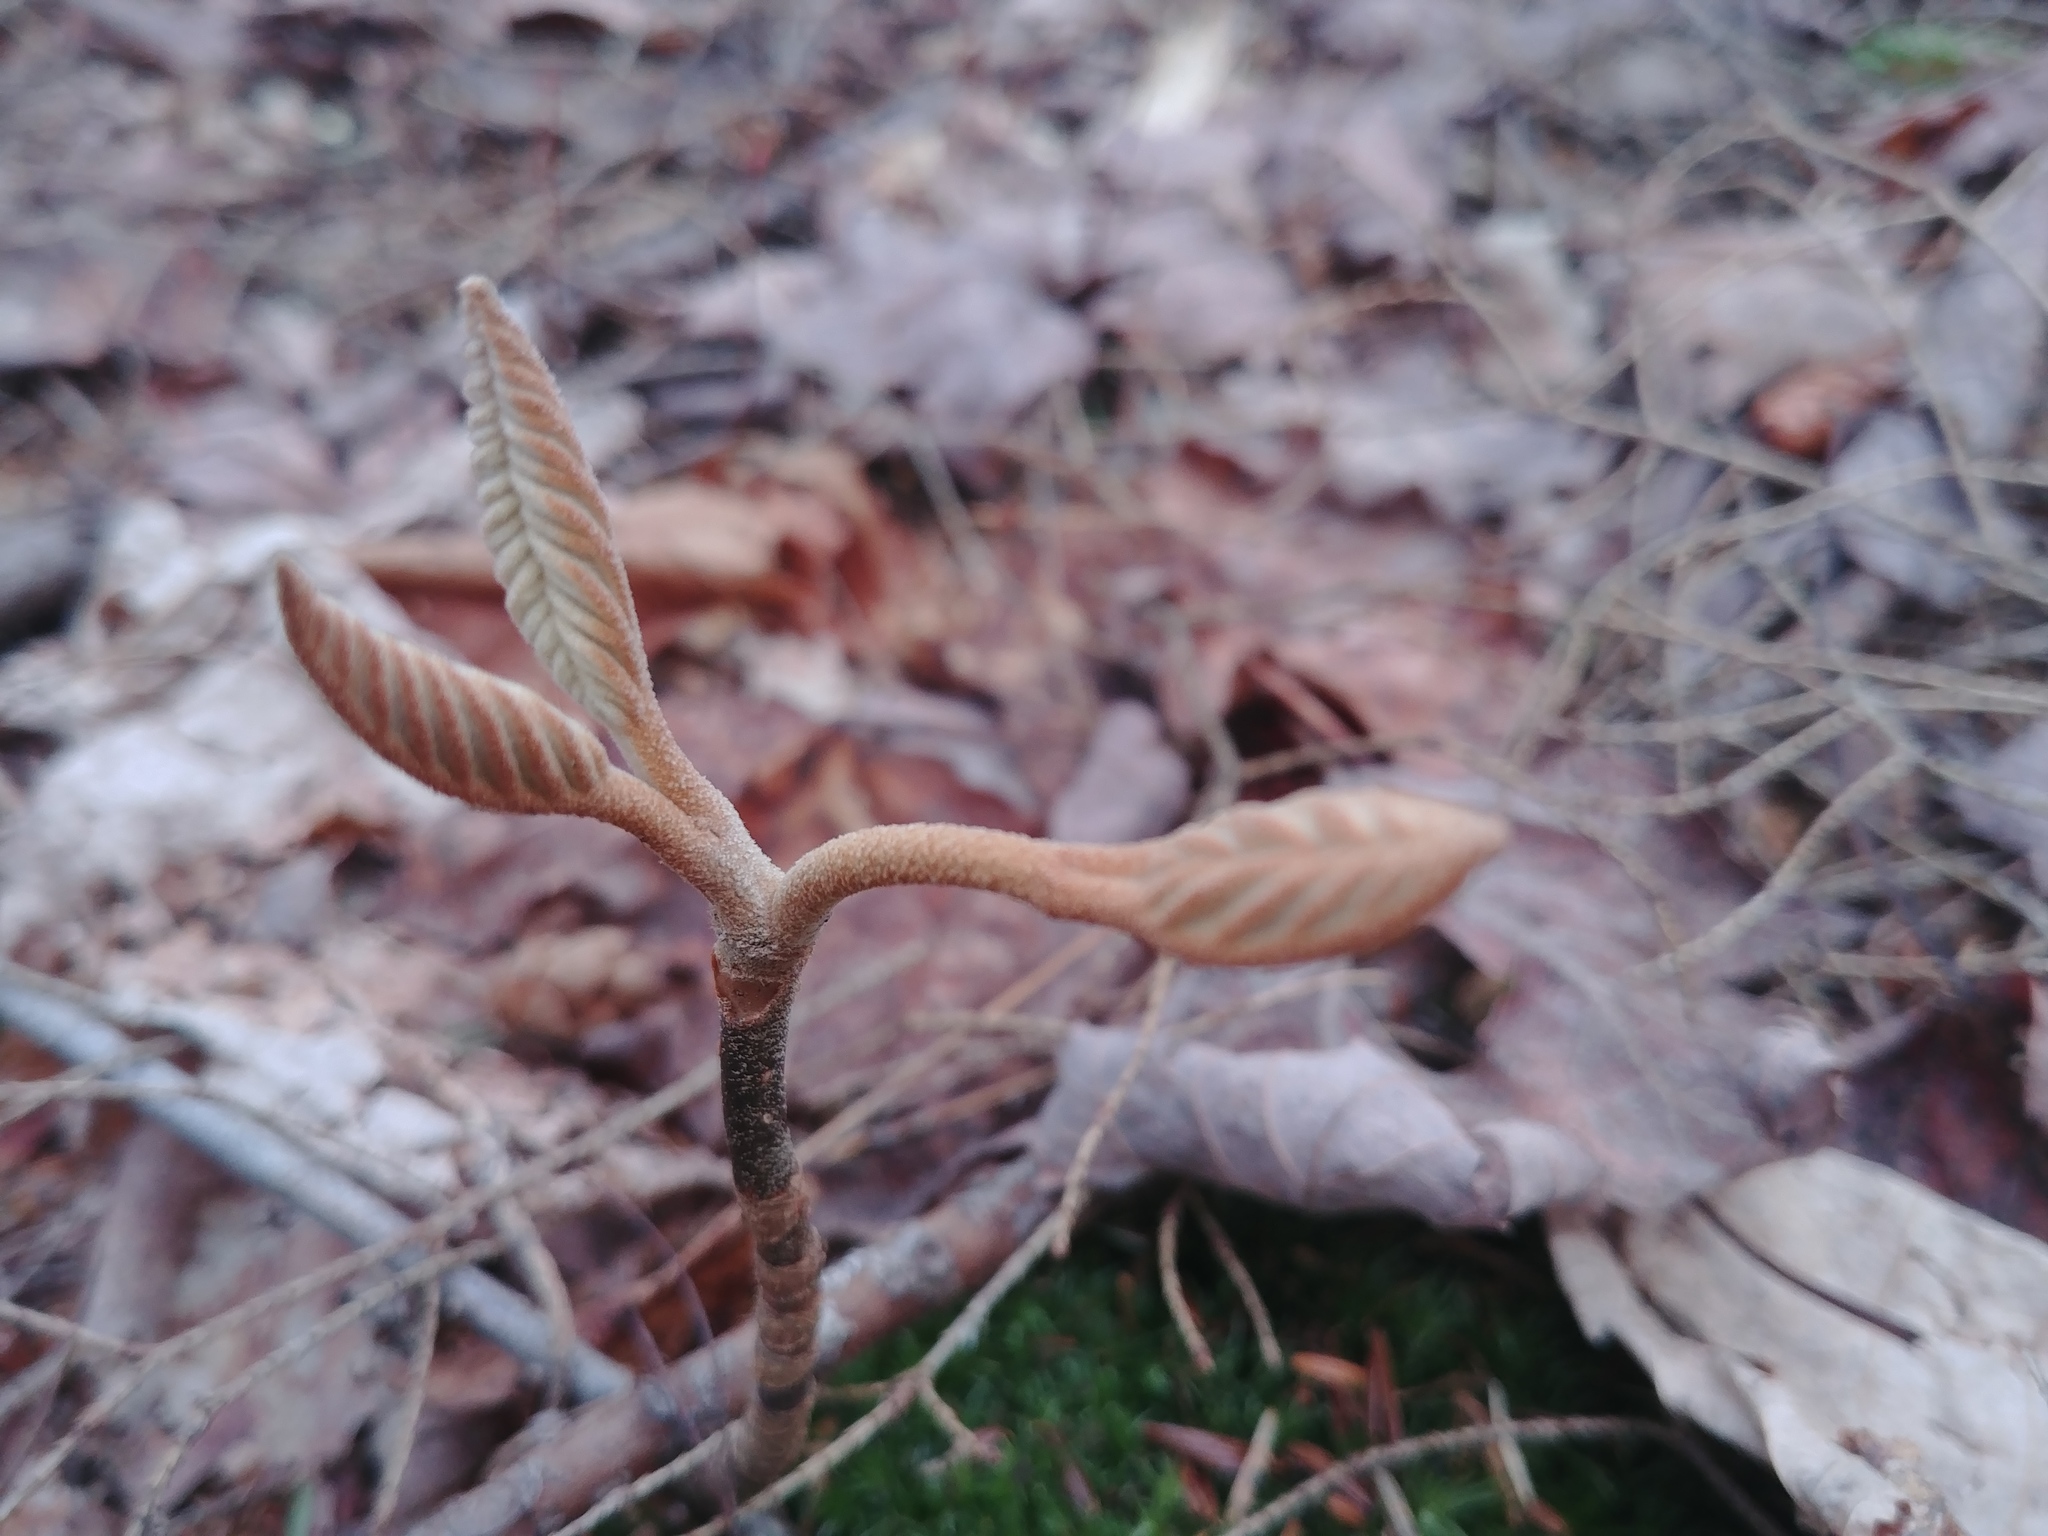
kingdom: Plantae
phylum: Tracheophyta
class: Magnoliopsida
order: Dipsacales
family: Viburnaceae
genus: Viburnum
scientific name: Viburnum lantanoides
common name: Hobblebush
